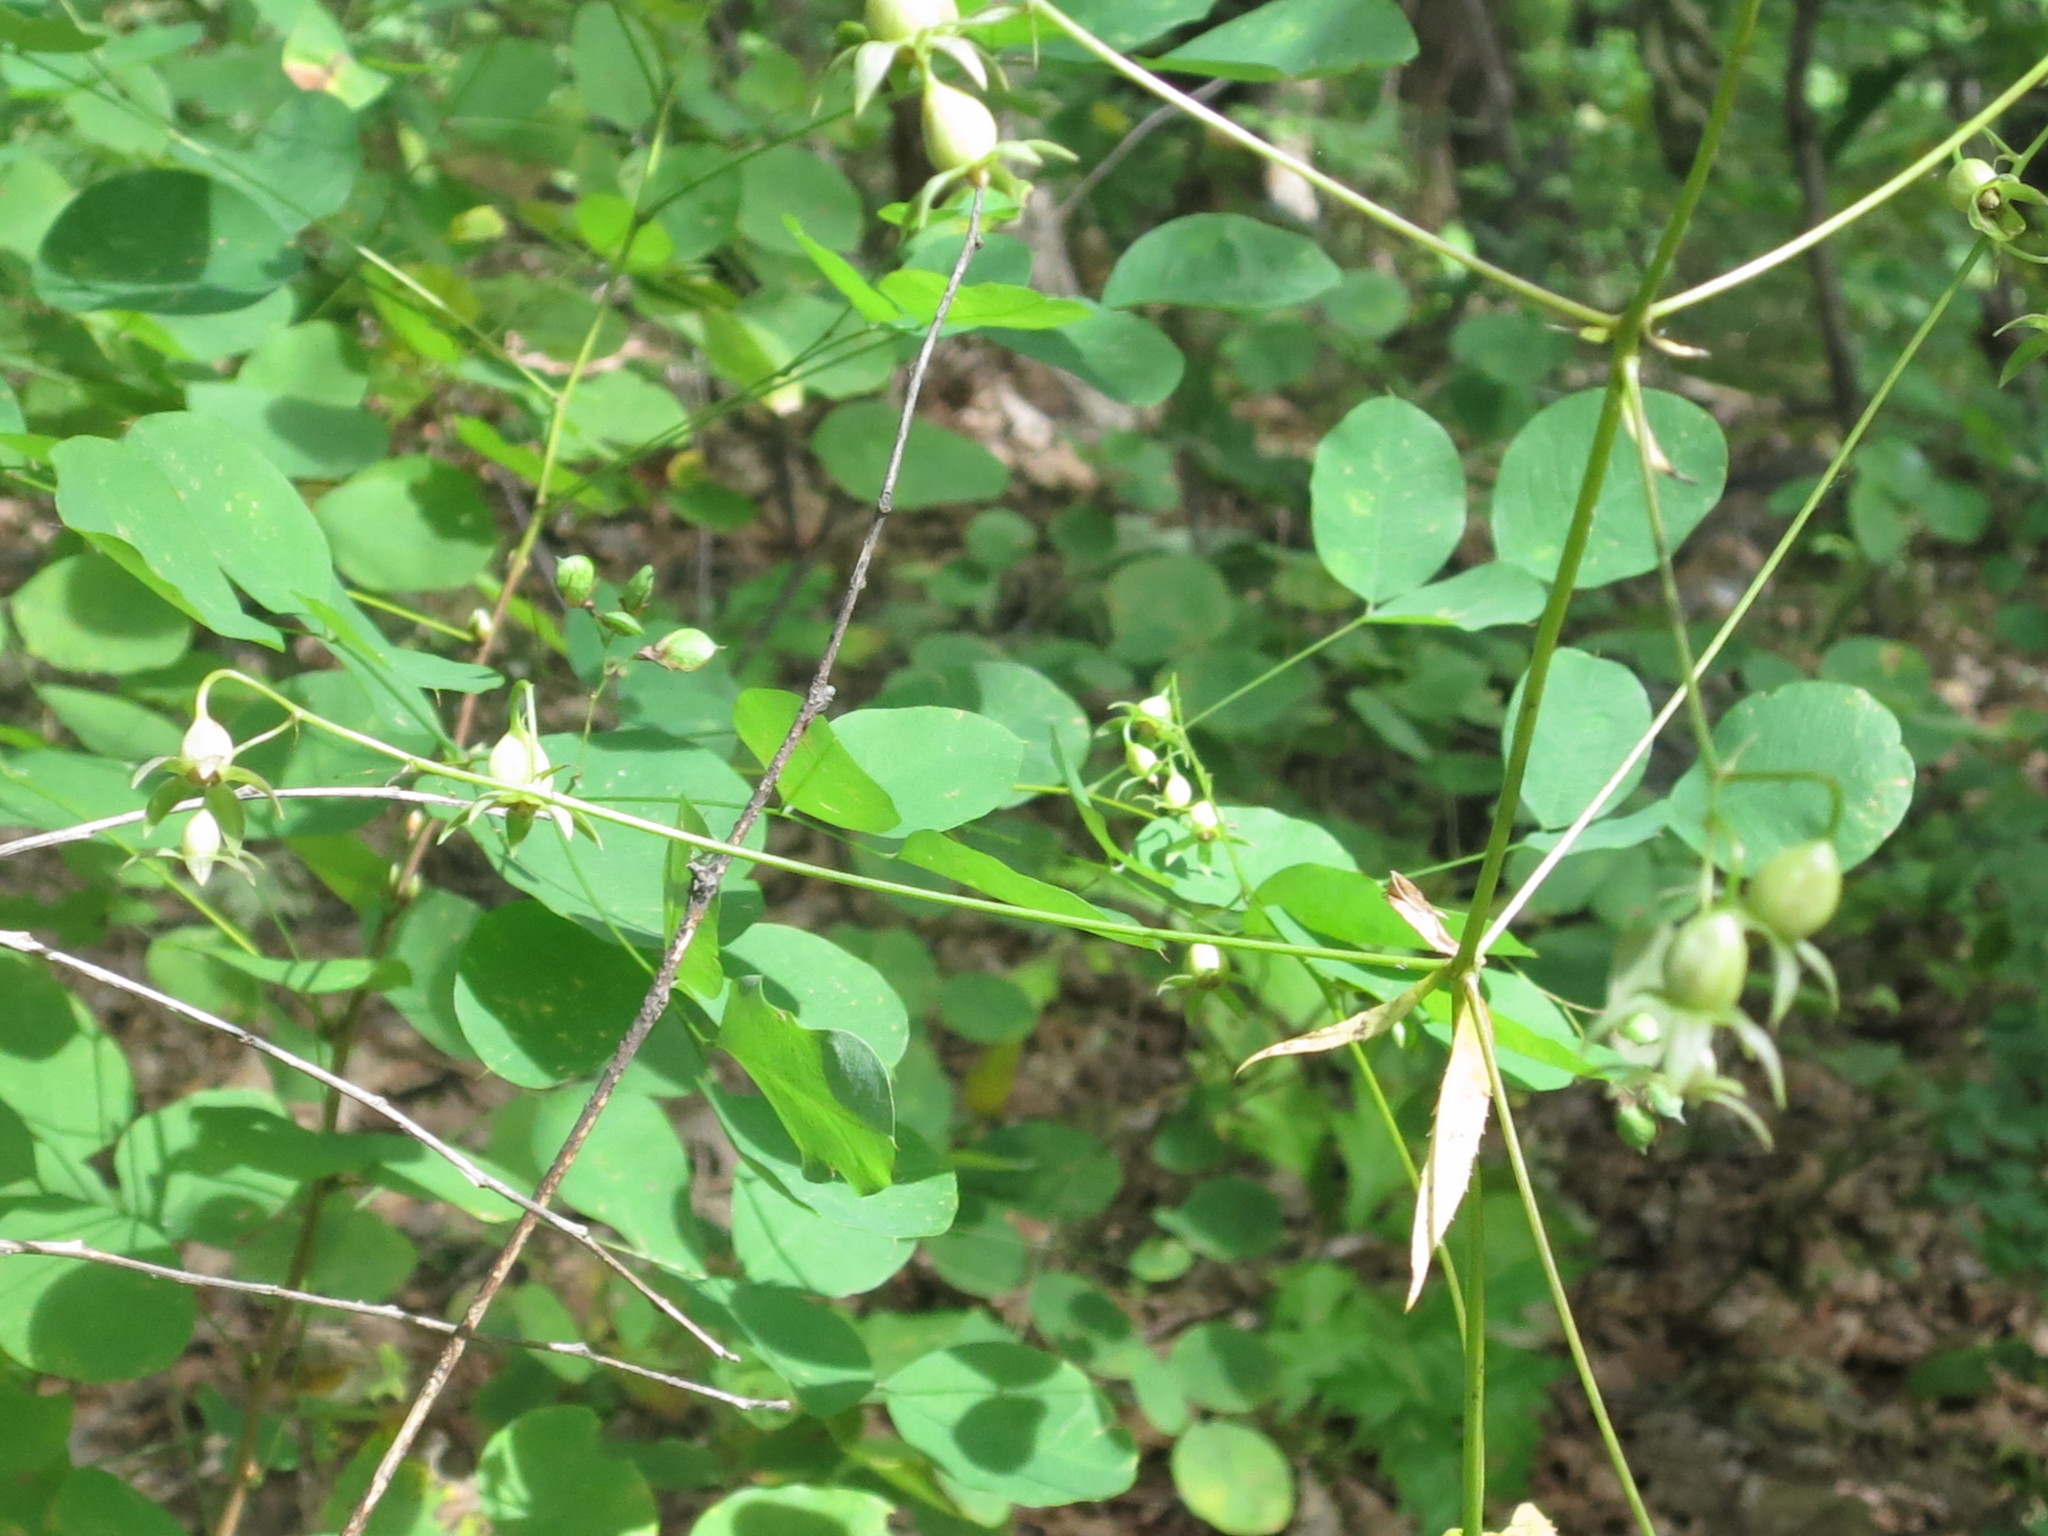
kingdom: Plantae
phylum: Tracheophyta
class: Magnoliopsida
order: Asterales
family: Campanulaceae
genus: Adenophora
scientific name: Adenophora divaricata
